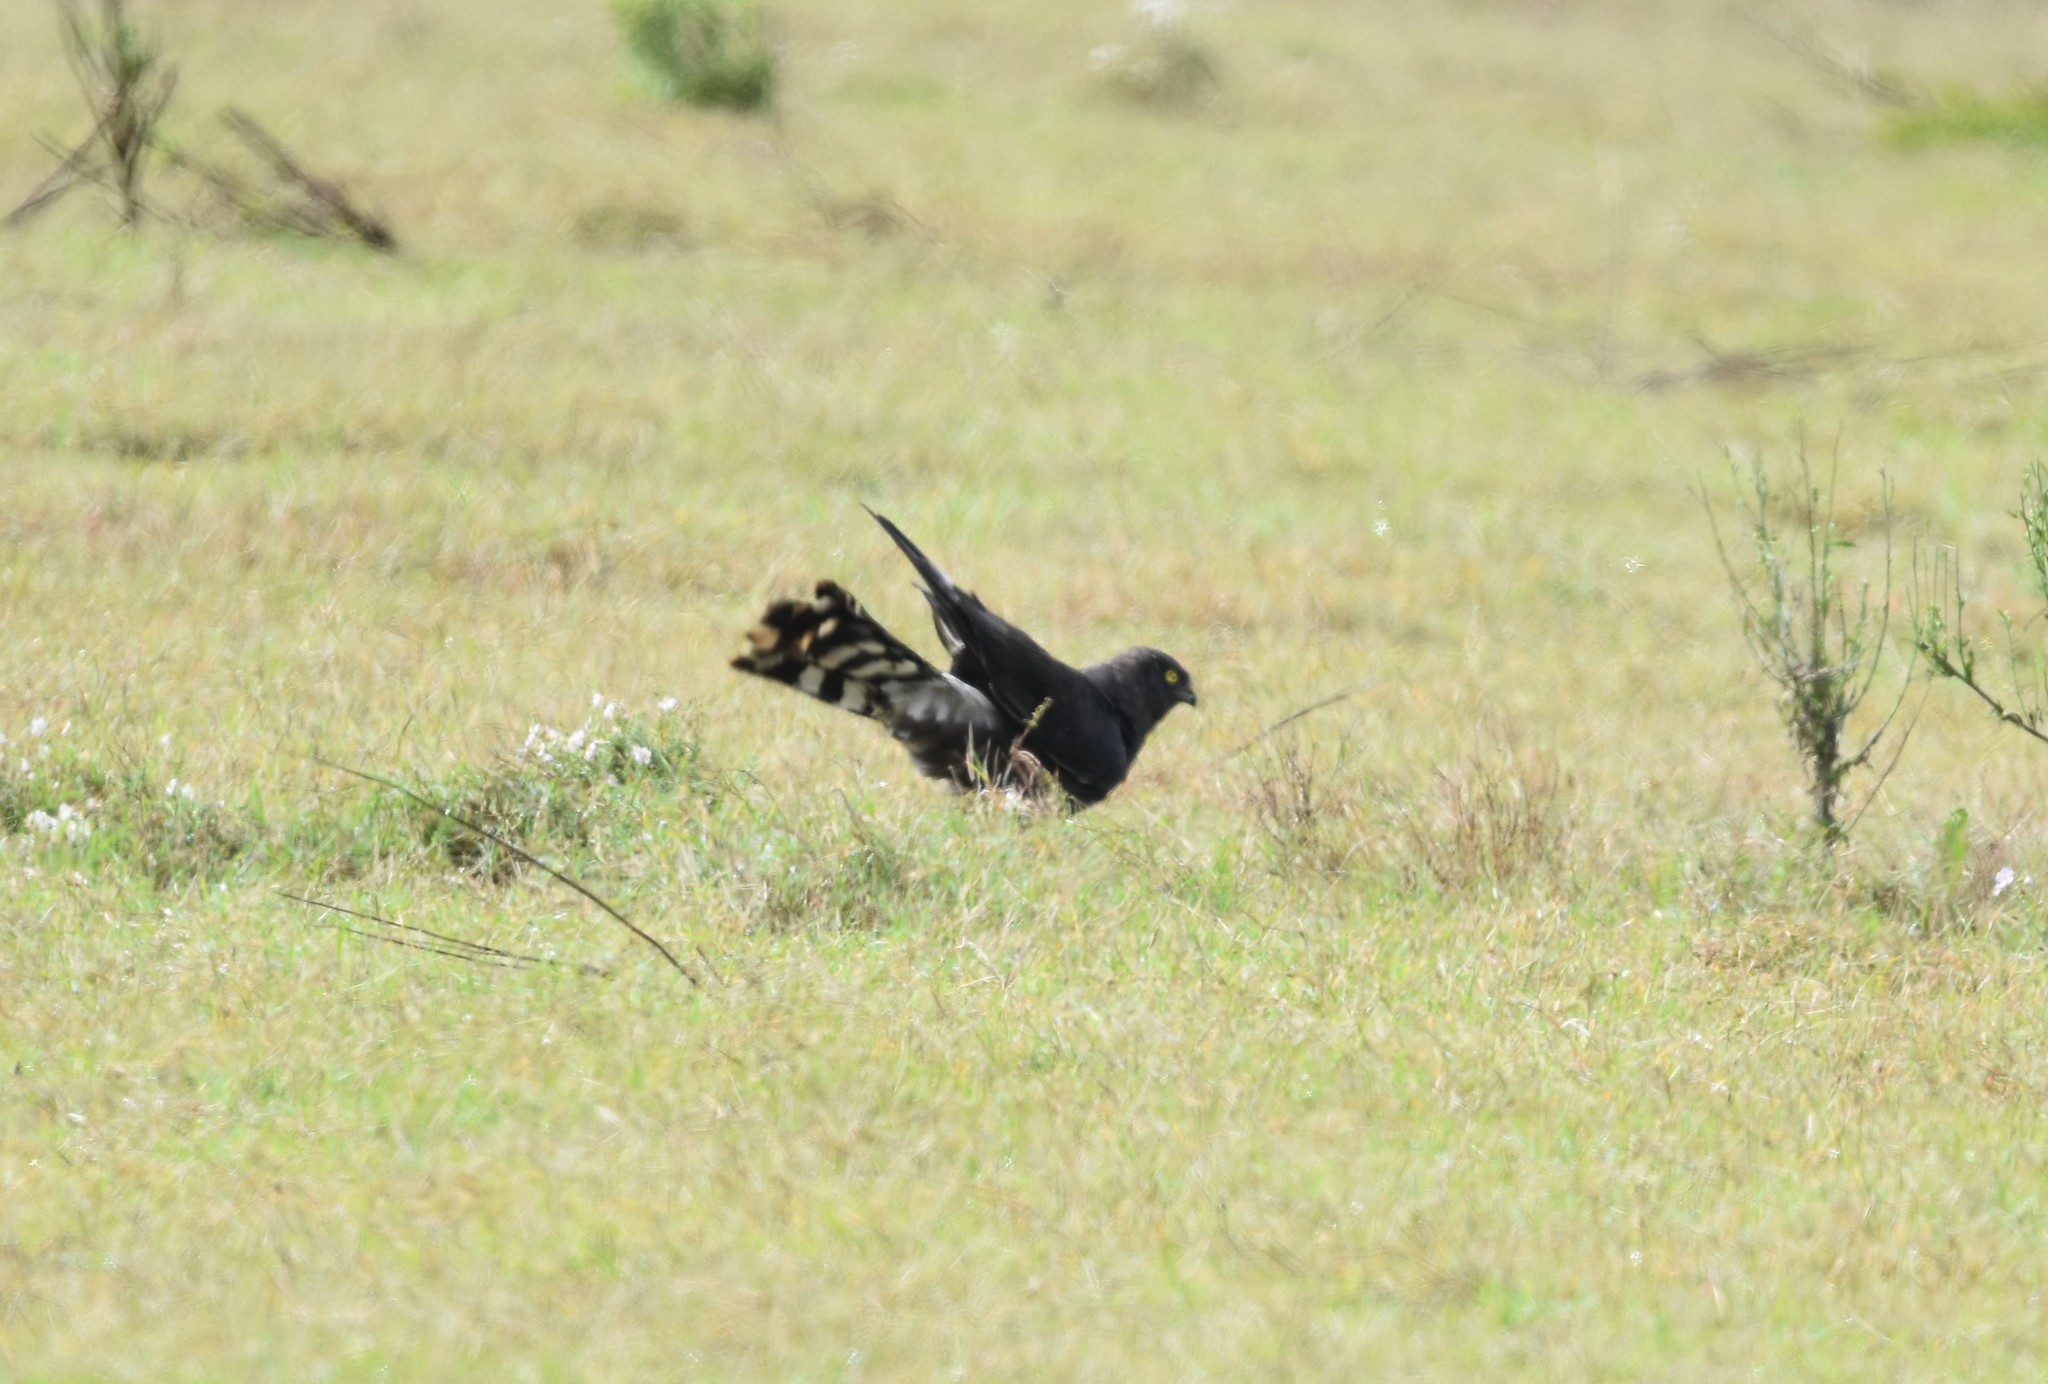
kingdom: Animalia
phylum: Chordata
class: Aves
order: Accipitriformes
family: Accipitridae
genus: Circus
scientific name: Circus maurus
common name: Black harrier
